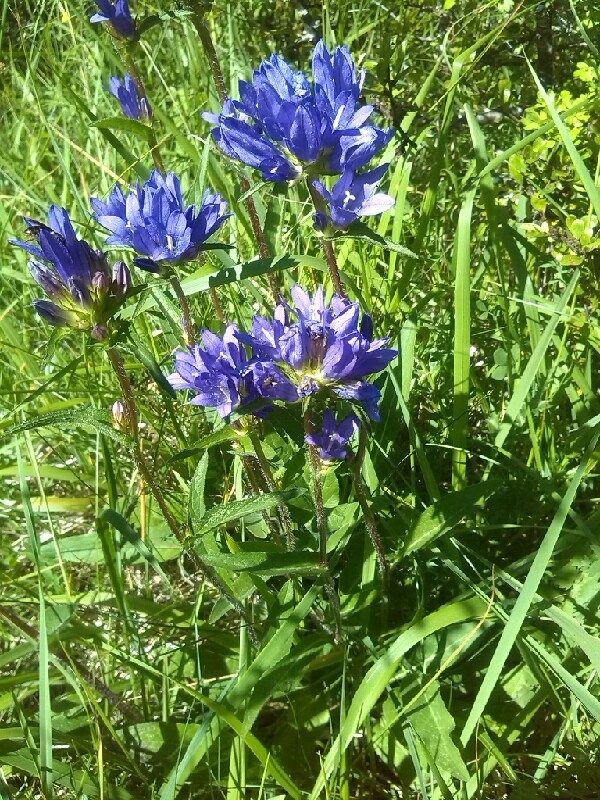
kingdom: Plantae
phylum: Tracheophyta
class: Magnoliopsida
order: Asterales
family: Campanulaceae
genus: Campanula
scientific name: Campanula glomerata
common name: Clustered bellflower
